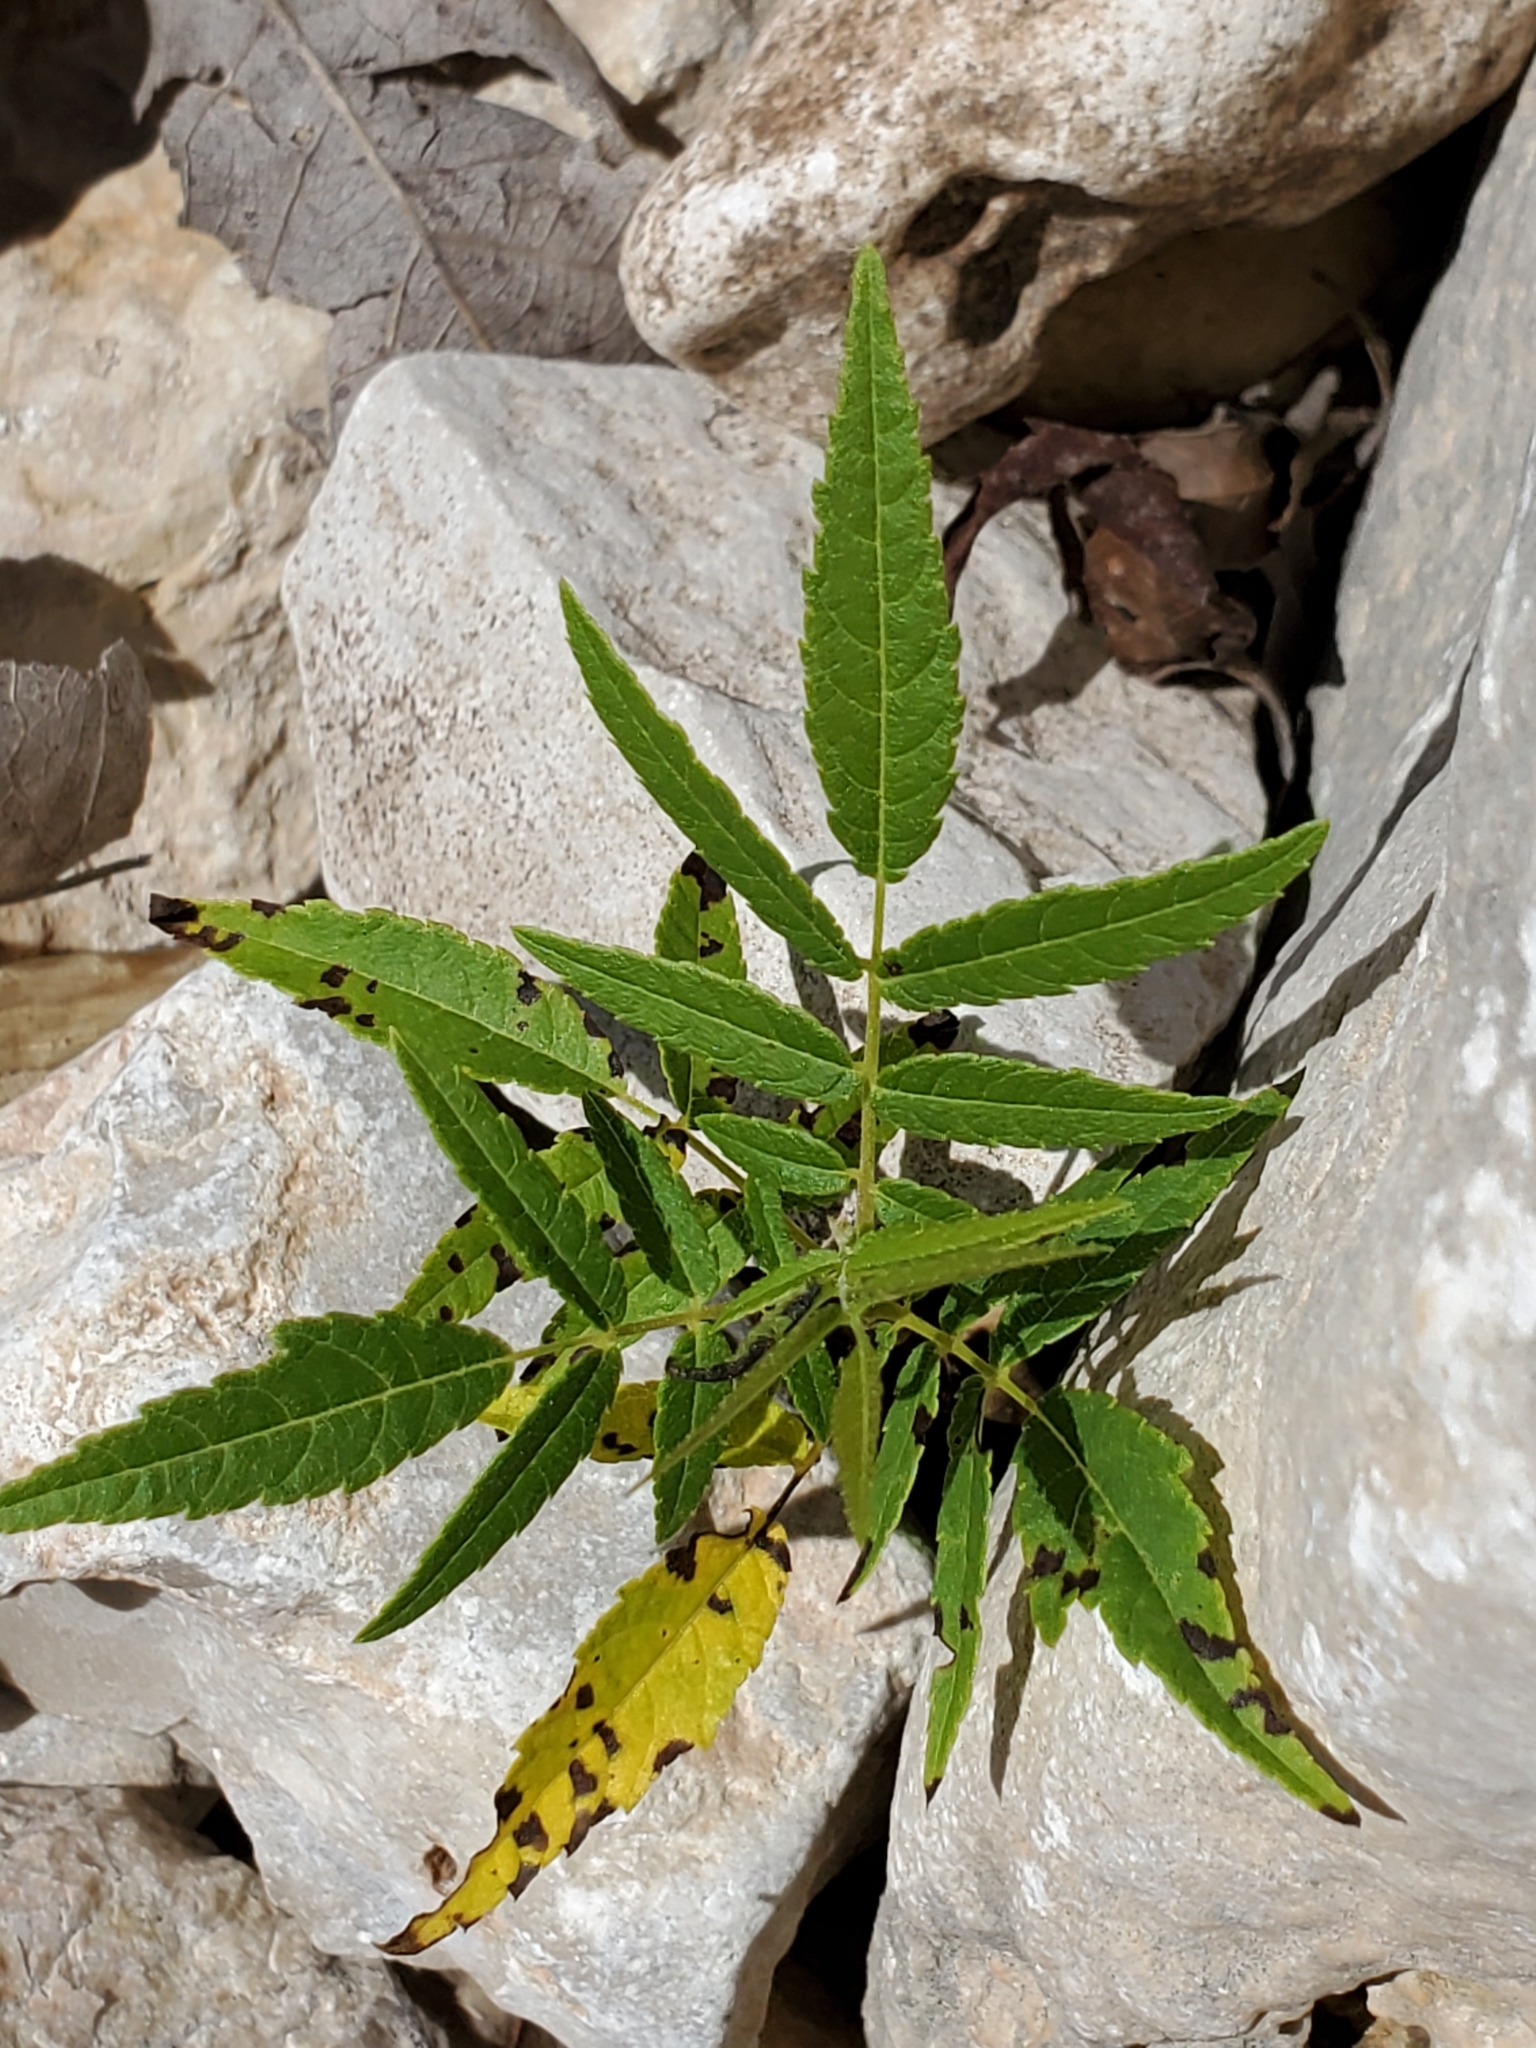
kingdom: Plantae
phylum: Tracheophyta
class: Magnoliopsida
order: Fagales
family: Juglandaceae
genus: Juglans
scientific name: Juglans microcarpa
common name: Texas walnut
